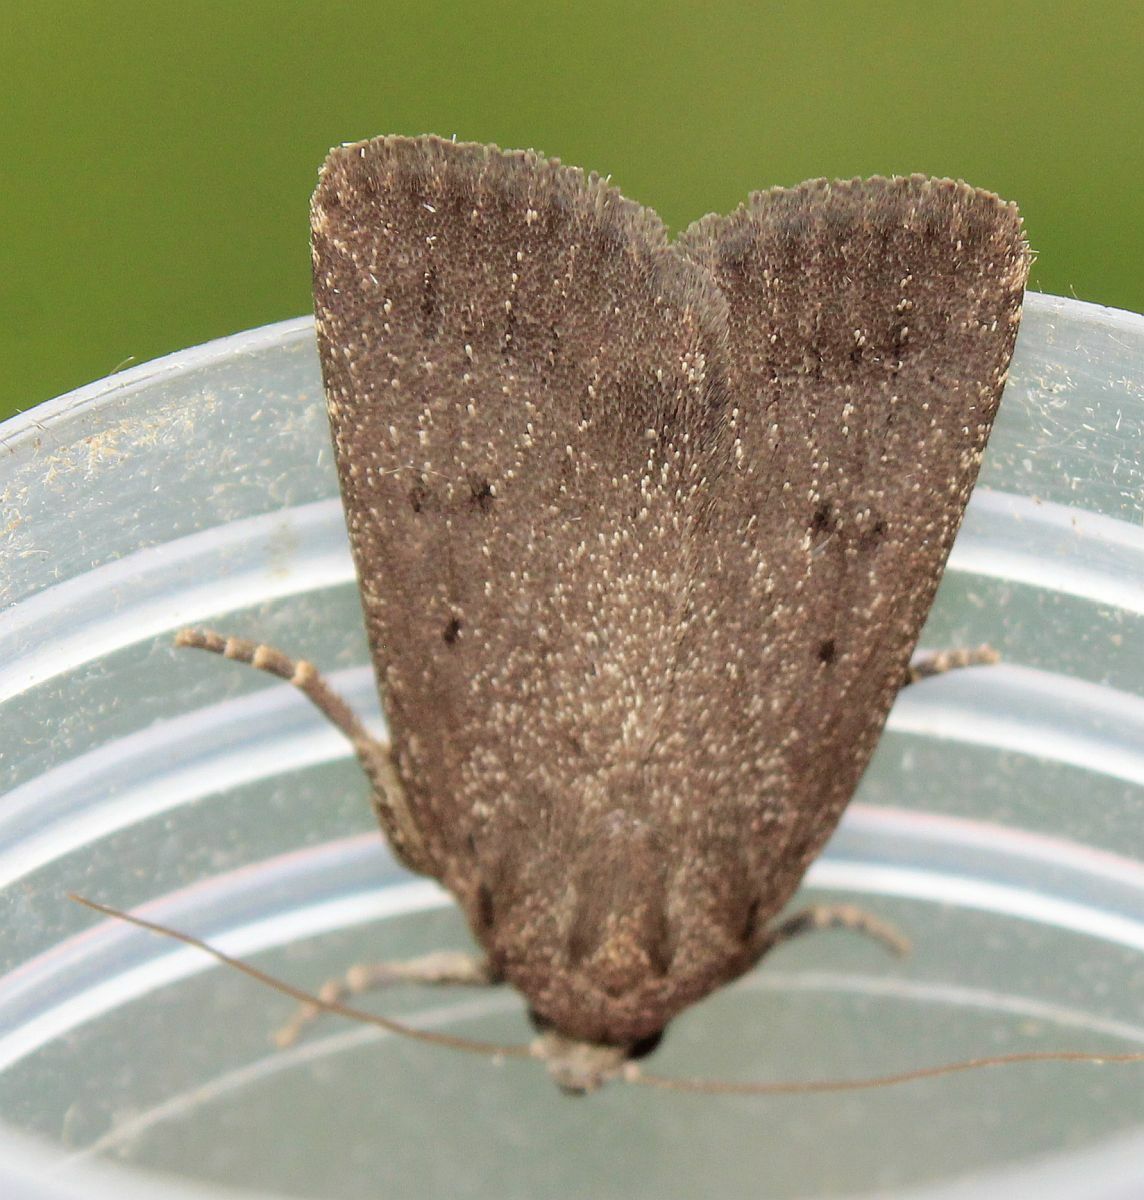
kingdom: Animalia
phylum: Arthropoda
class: Insecta
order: Lepidoptera
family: Noctuidae
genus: Amphipyra
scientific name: Amphipyra tragopoginis
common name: Mouse moth
